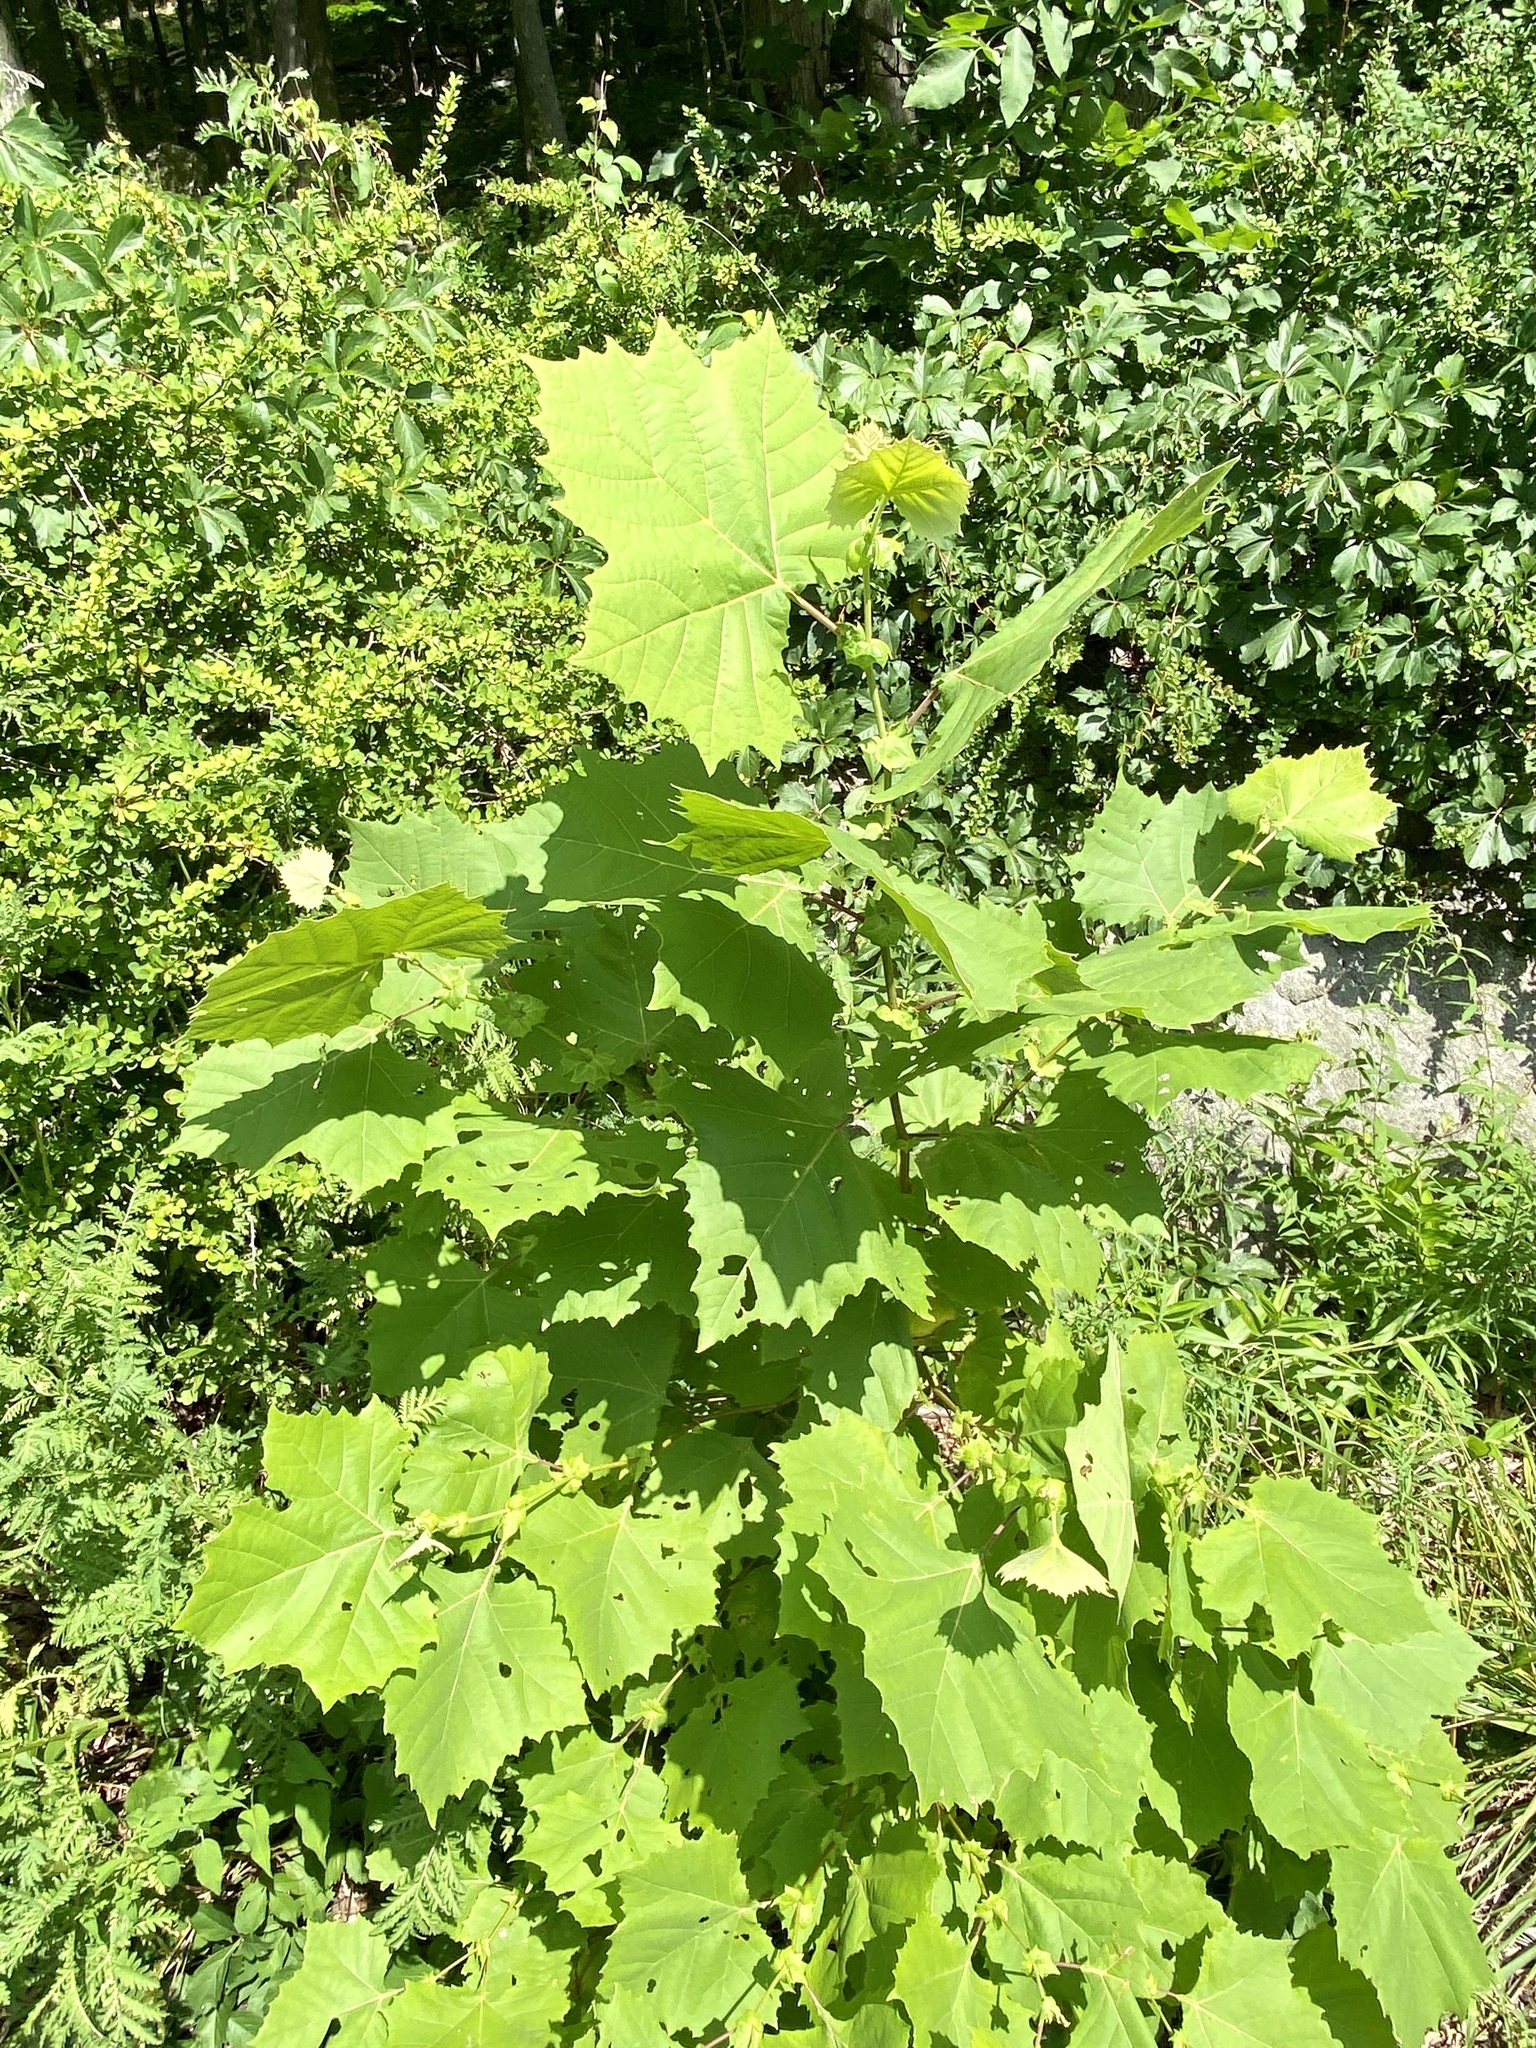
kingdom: Plantae
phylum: Tracheophyta
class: Magnoliopsida
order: Proteales
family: Platanaceae
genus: Platanus
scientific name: Platanus occidentalis
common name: American sycamore
